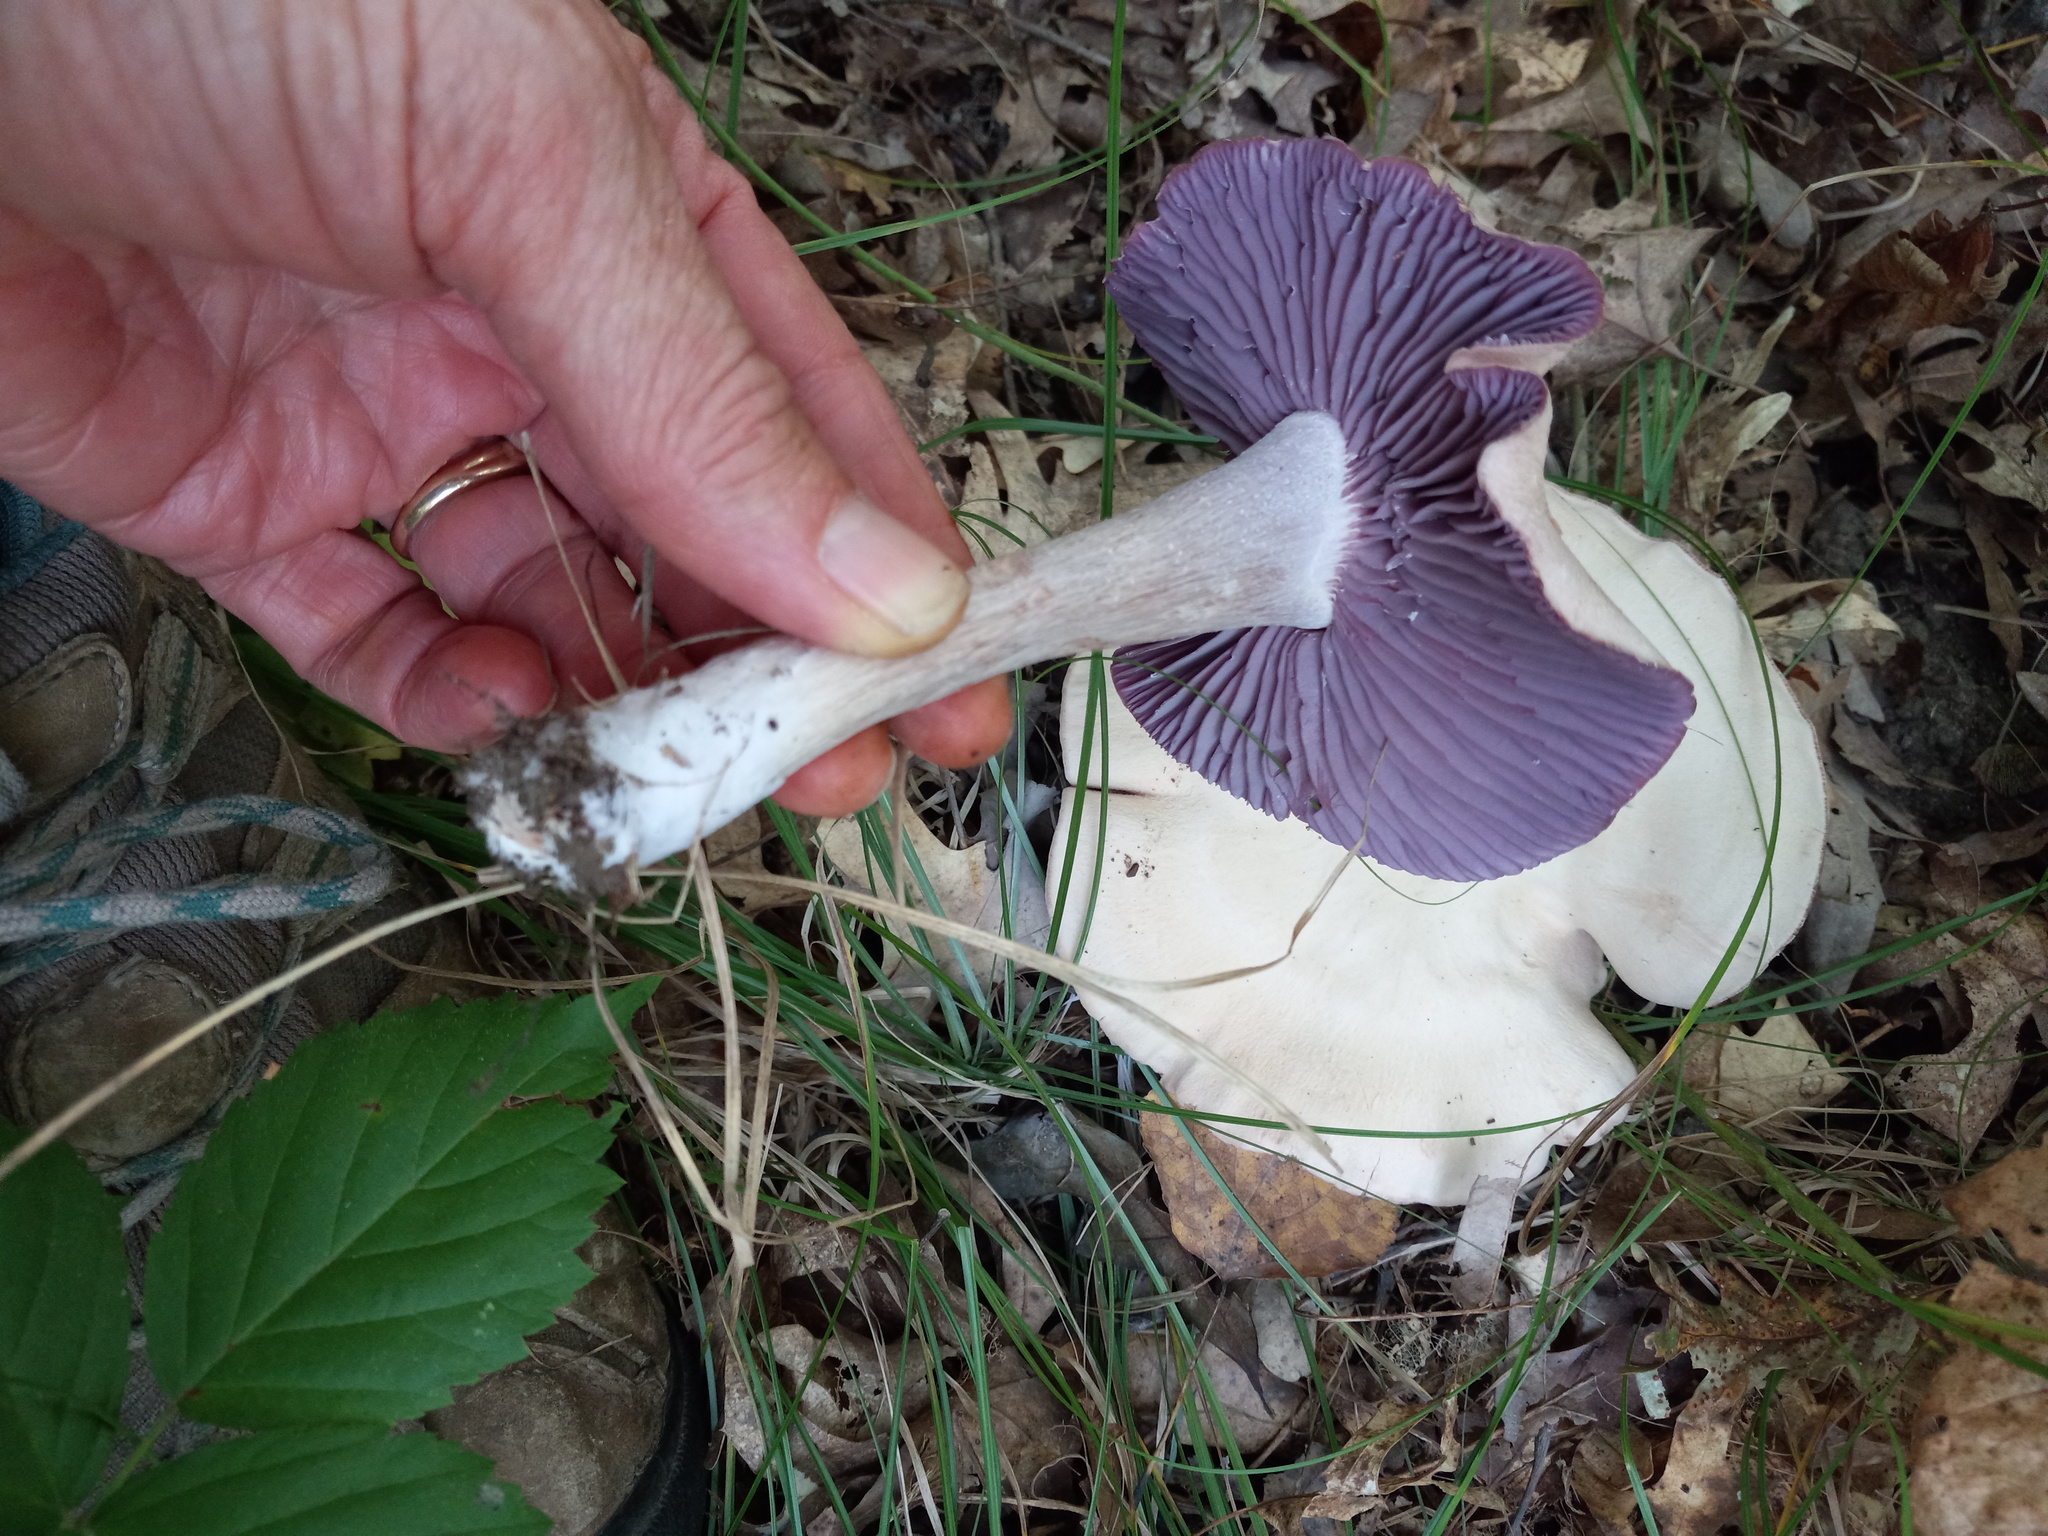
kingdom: Fungi
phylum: Basidiomycota
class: Agaricomycetes
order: Agaricales
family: Hydnangiaceae
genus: Laccaria
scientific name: Laccaria ochropurpurea
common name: Purple laccaria
